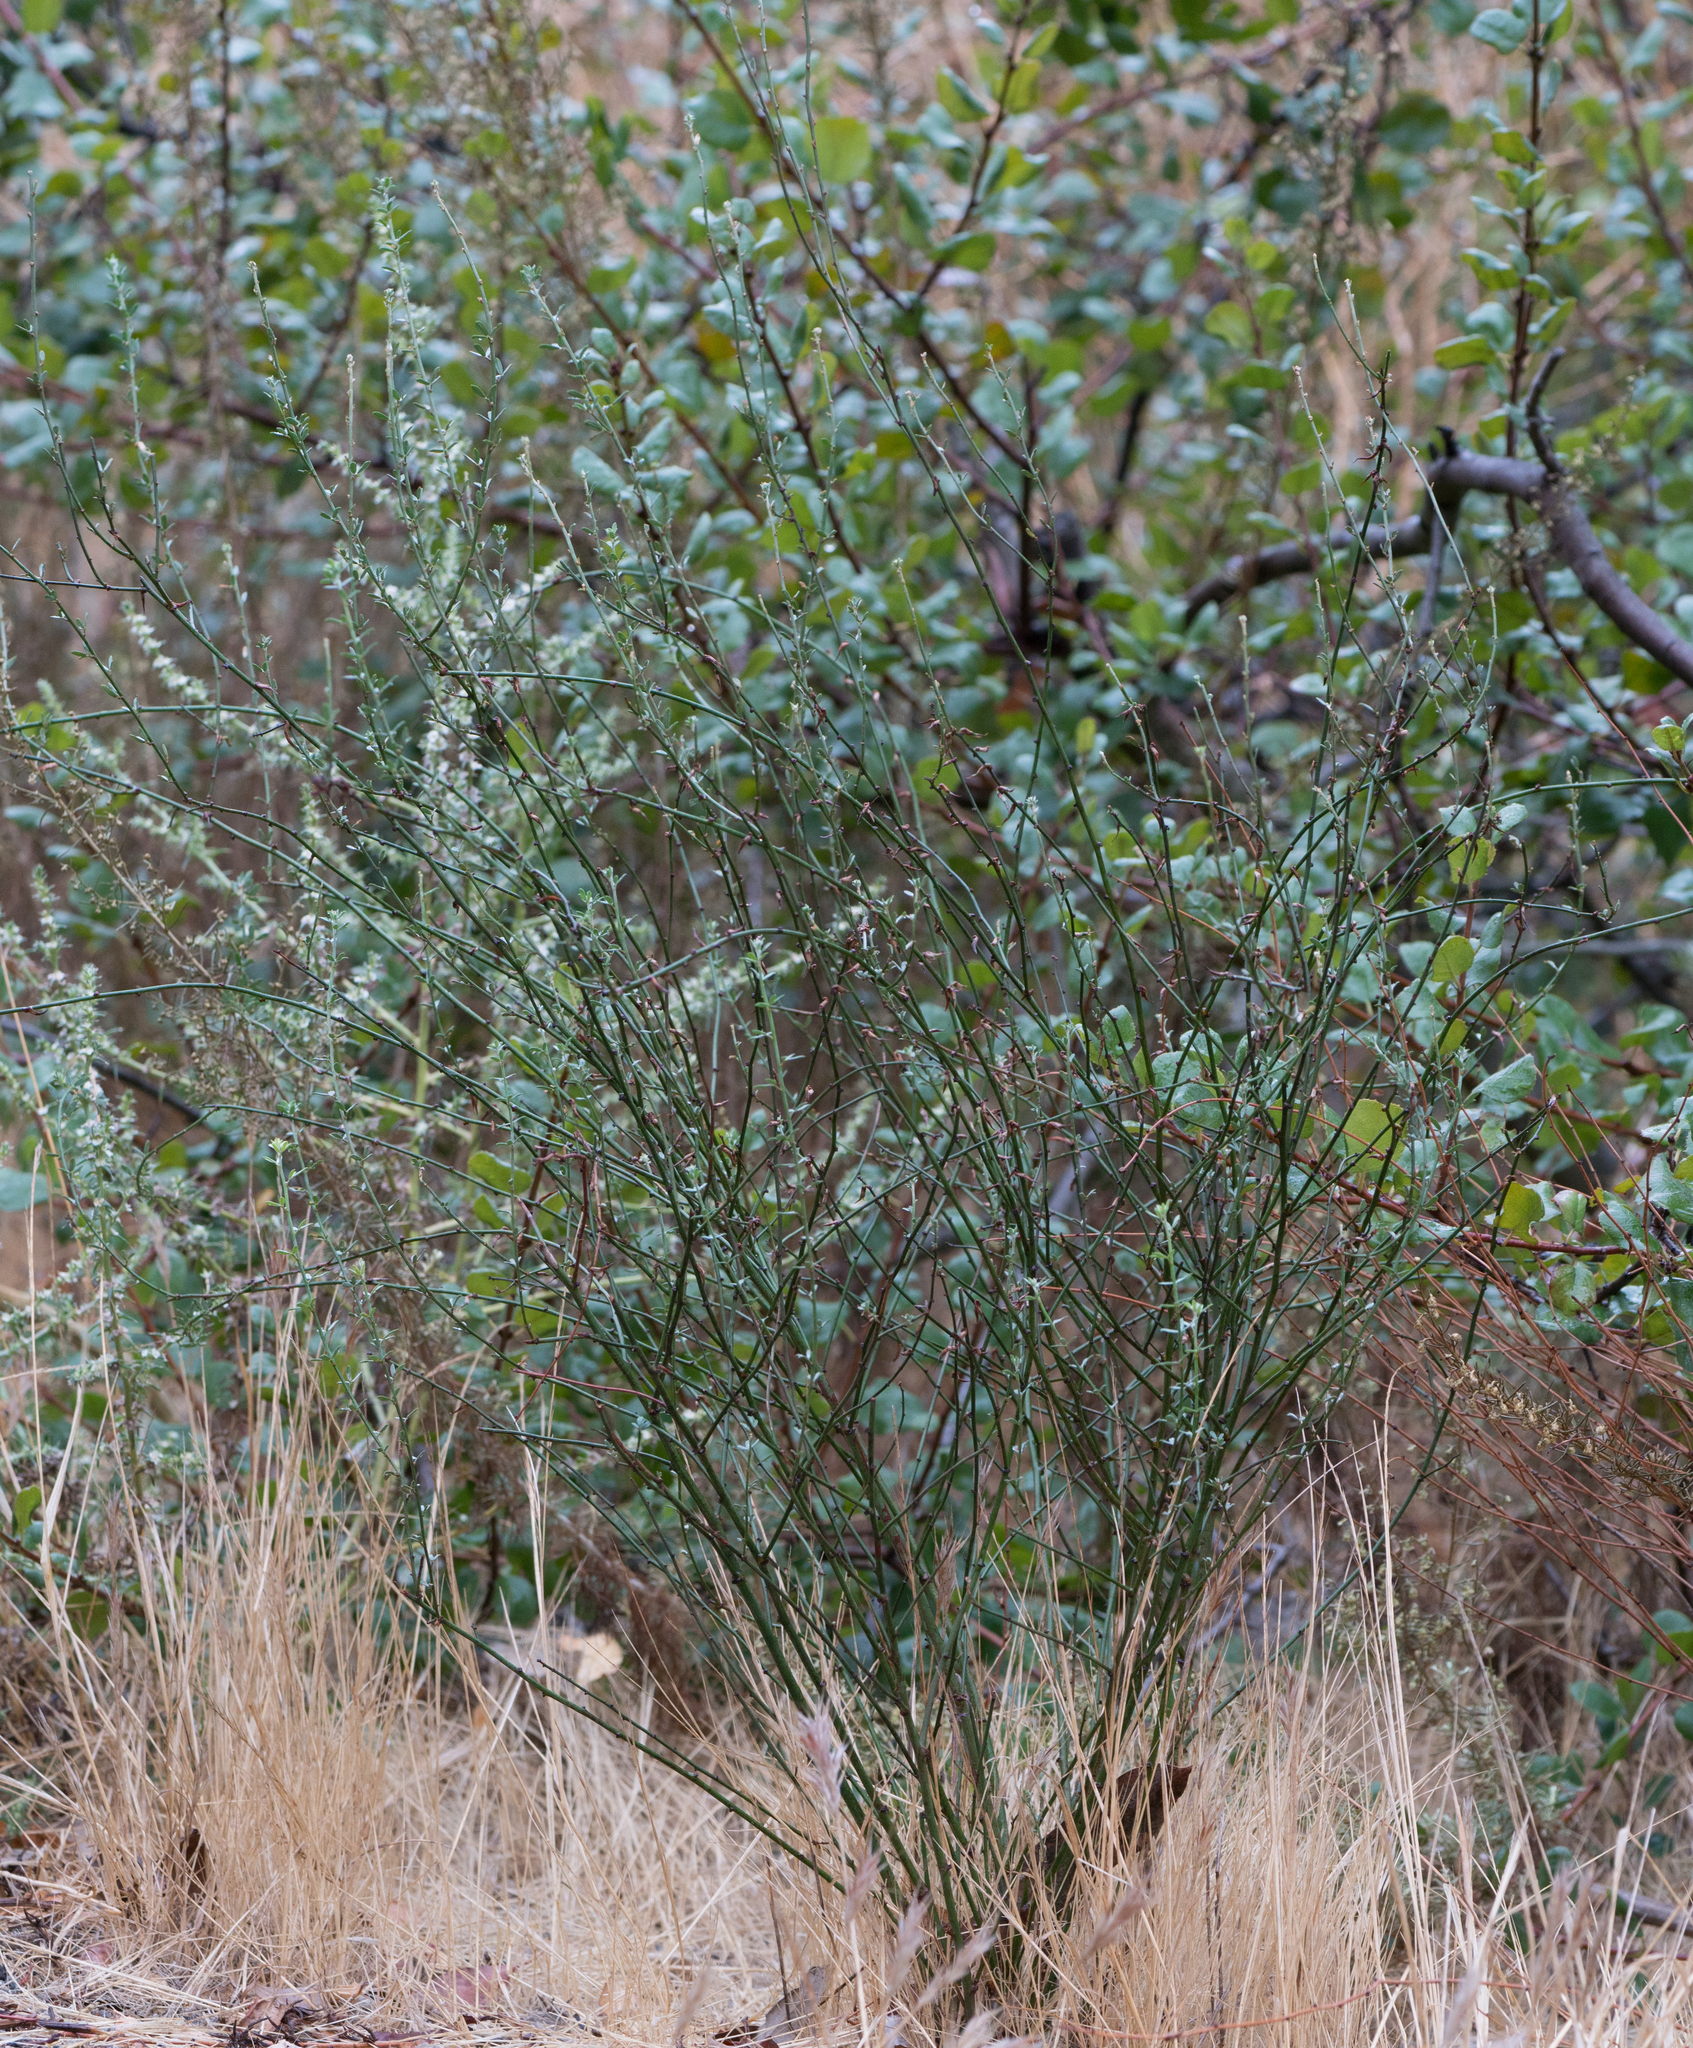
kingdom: Plantae
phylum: Tracheophyta
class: Magnoliopsida
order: Fabales
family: Fabaceae
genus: Acmispon
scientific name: Acmispon glaber
